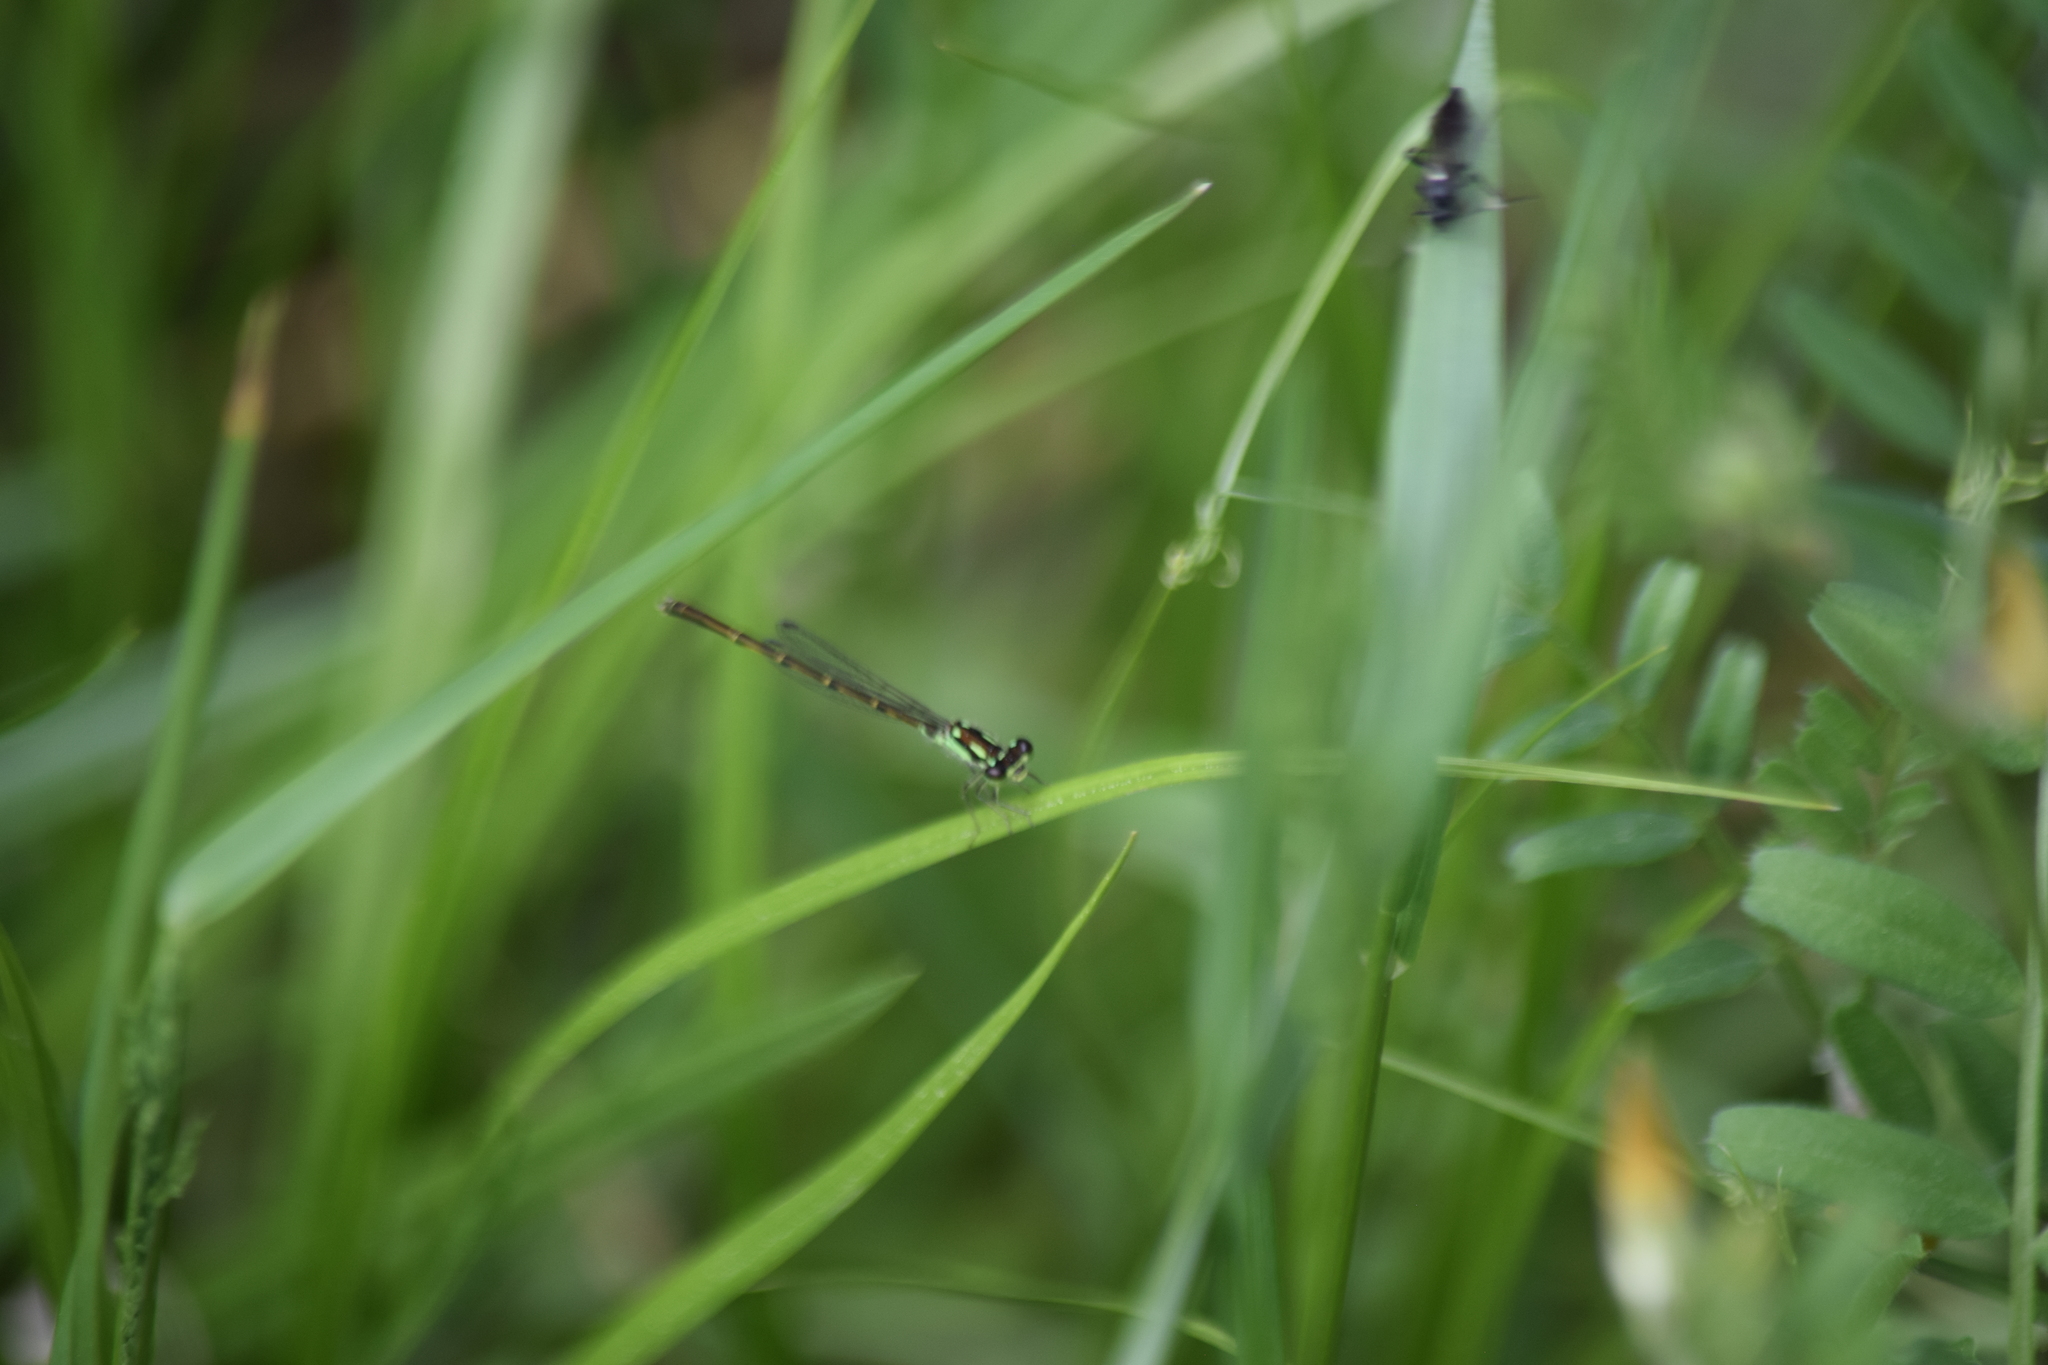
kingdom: Animalia
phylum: Arthropoda
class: Insecta
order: Odonata
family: Coenagrionidae
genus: Ischnura
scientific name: Ischnura posita
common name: Fragile forktail
